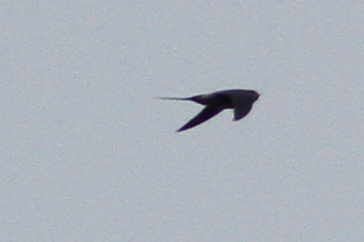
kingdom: Animalia
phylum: Chordata
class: Aves
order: Apodiformes
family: Hemiprocnidae
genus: Hemiprocne
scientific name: Hemiprocne longipennis
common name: Grey-rumped treeswift
